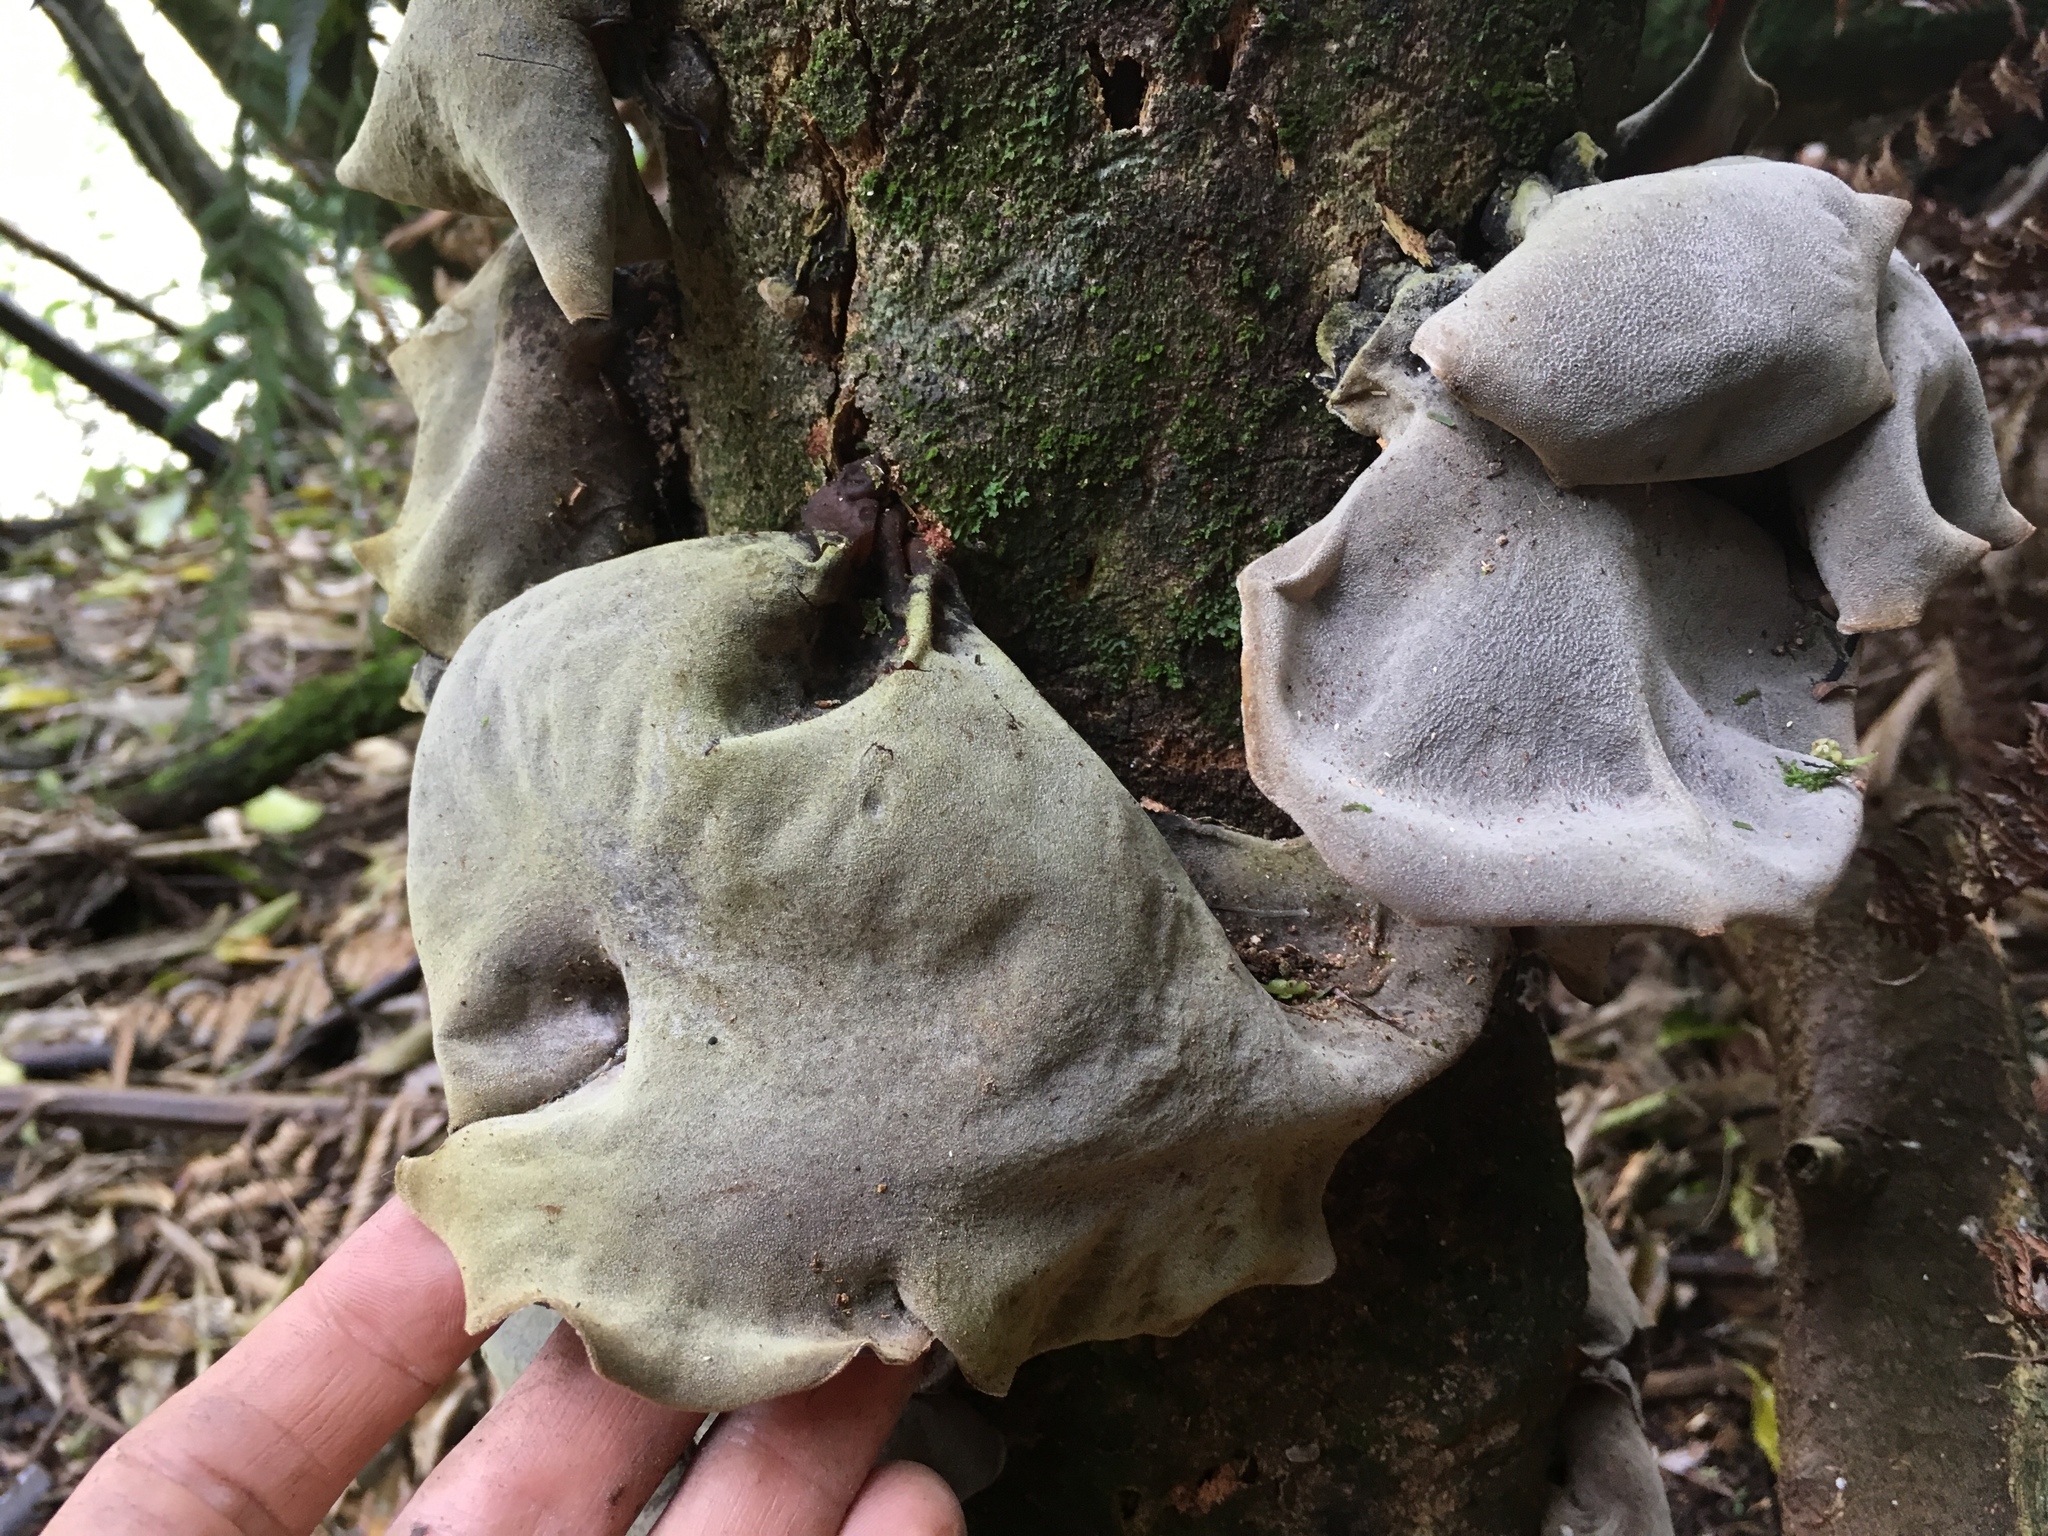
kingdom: Fungi
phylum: Basidiomycota
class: Agaricomycetes
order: Auriculariales
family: Auriculariaceae
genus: Auricularia
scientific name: Auricularia cornea
